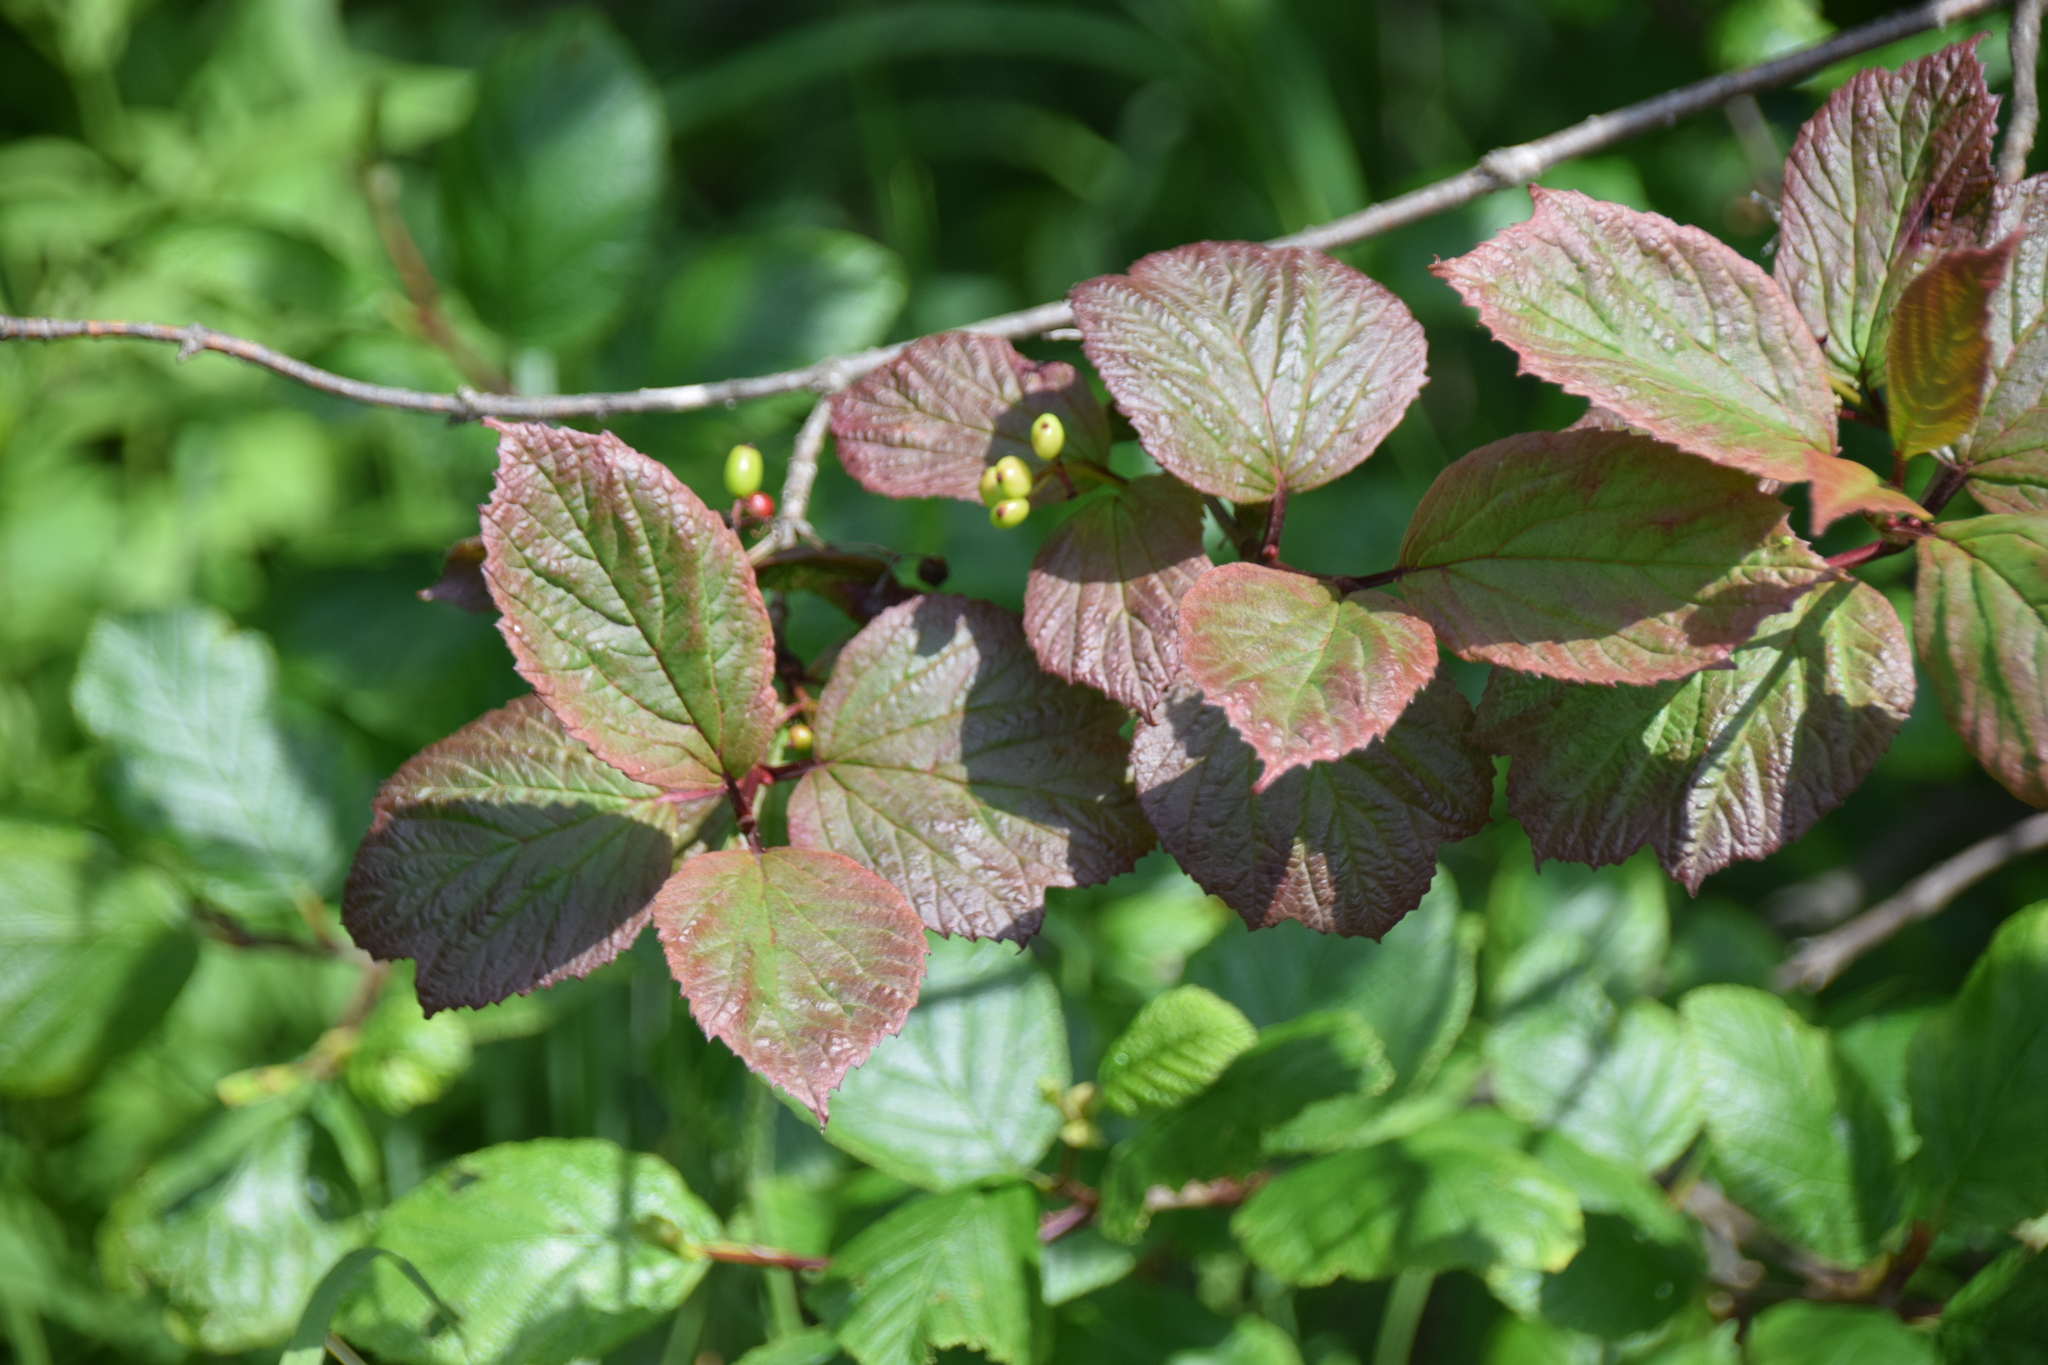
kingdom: Plantae
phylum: Tracheophyta
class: Magnoliopsida
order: Dipsacales
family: Viburnaceae
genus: Viburnum
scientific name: Viburnum edule
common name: Mooseberry
